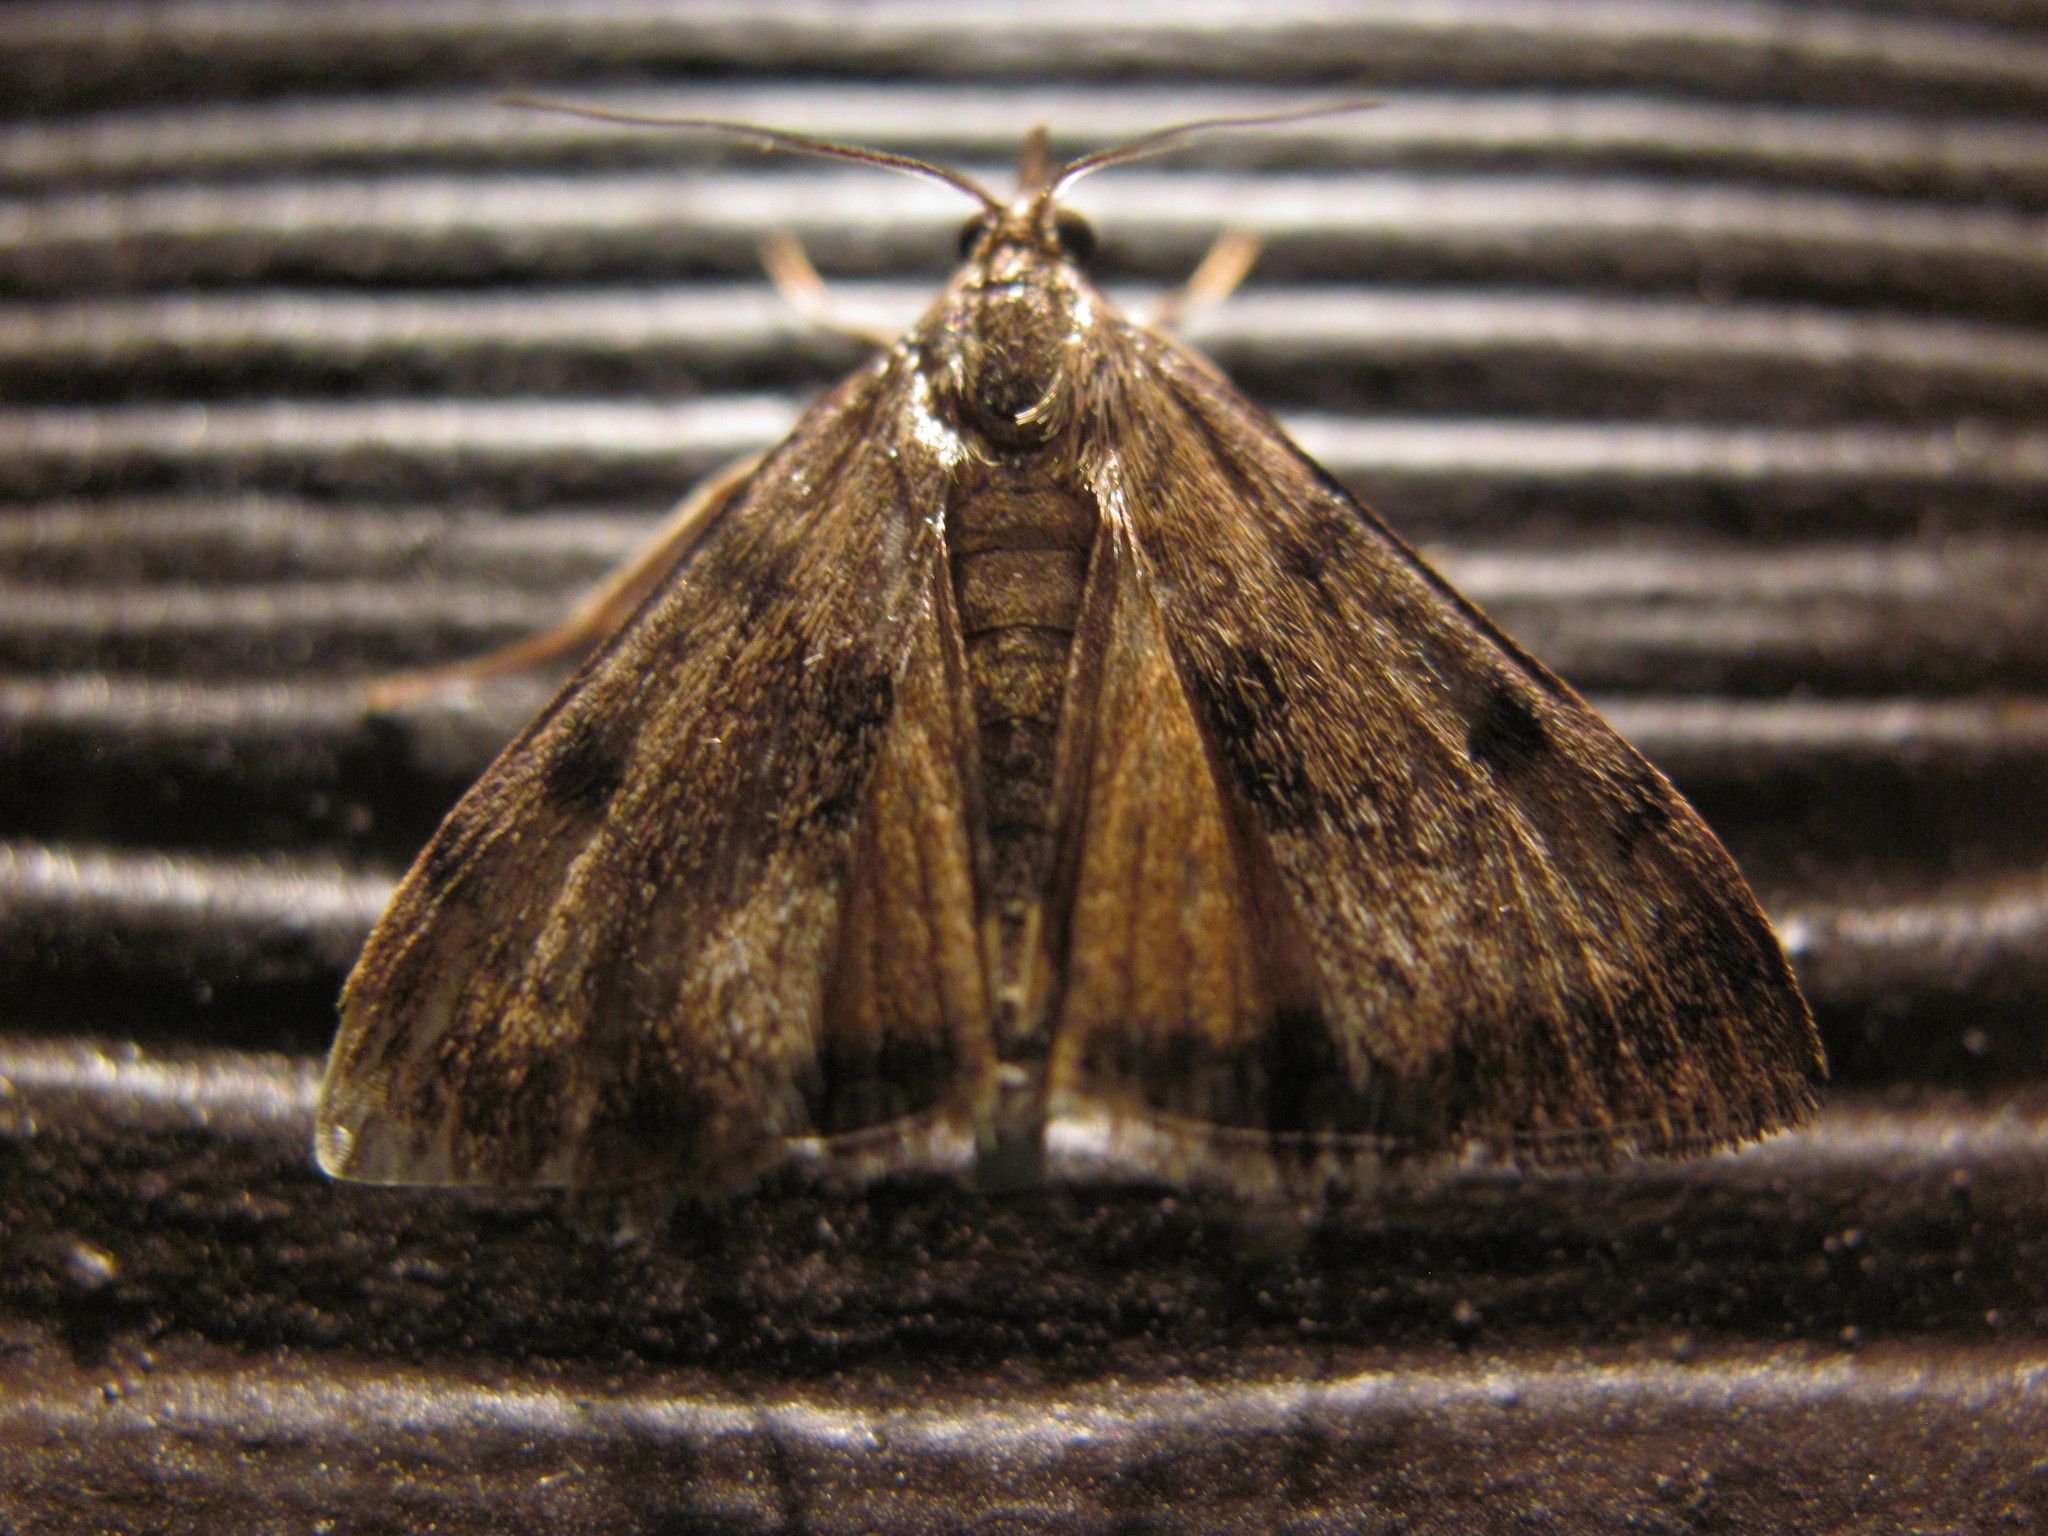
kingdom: Animalia
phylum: Arthropoda
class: Insecta
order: Lepidoptera
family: Crambidae
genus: Uresiphita
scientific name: Uresiphita
